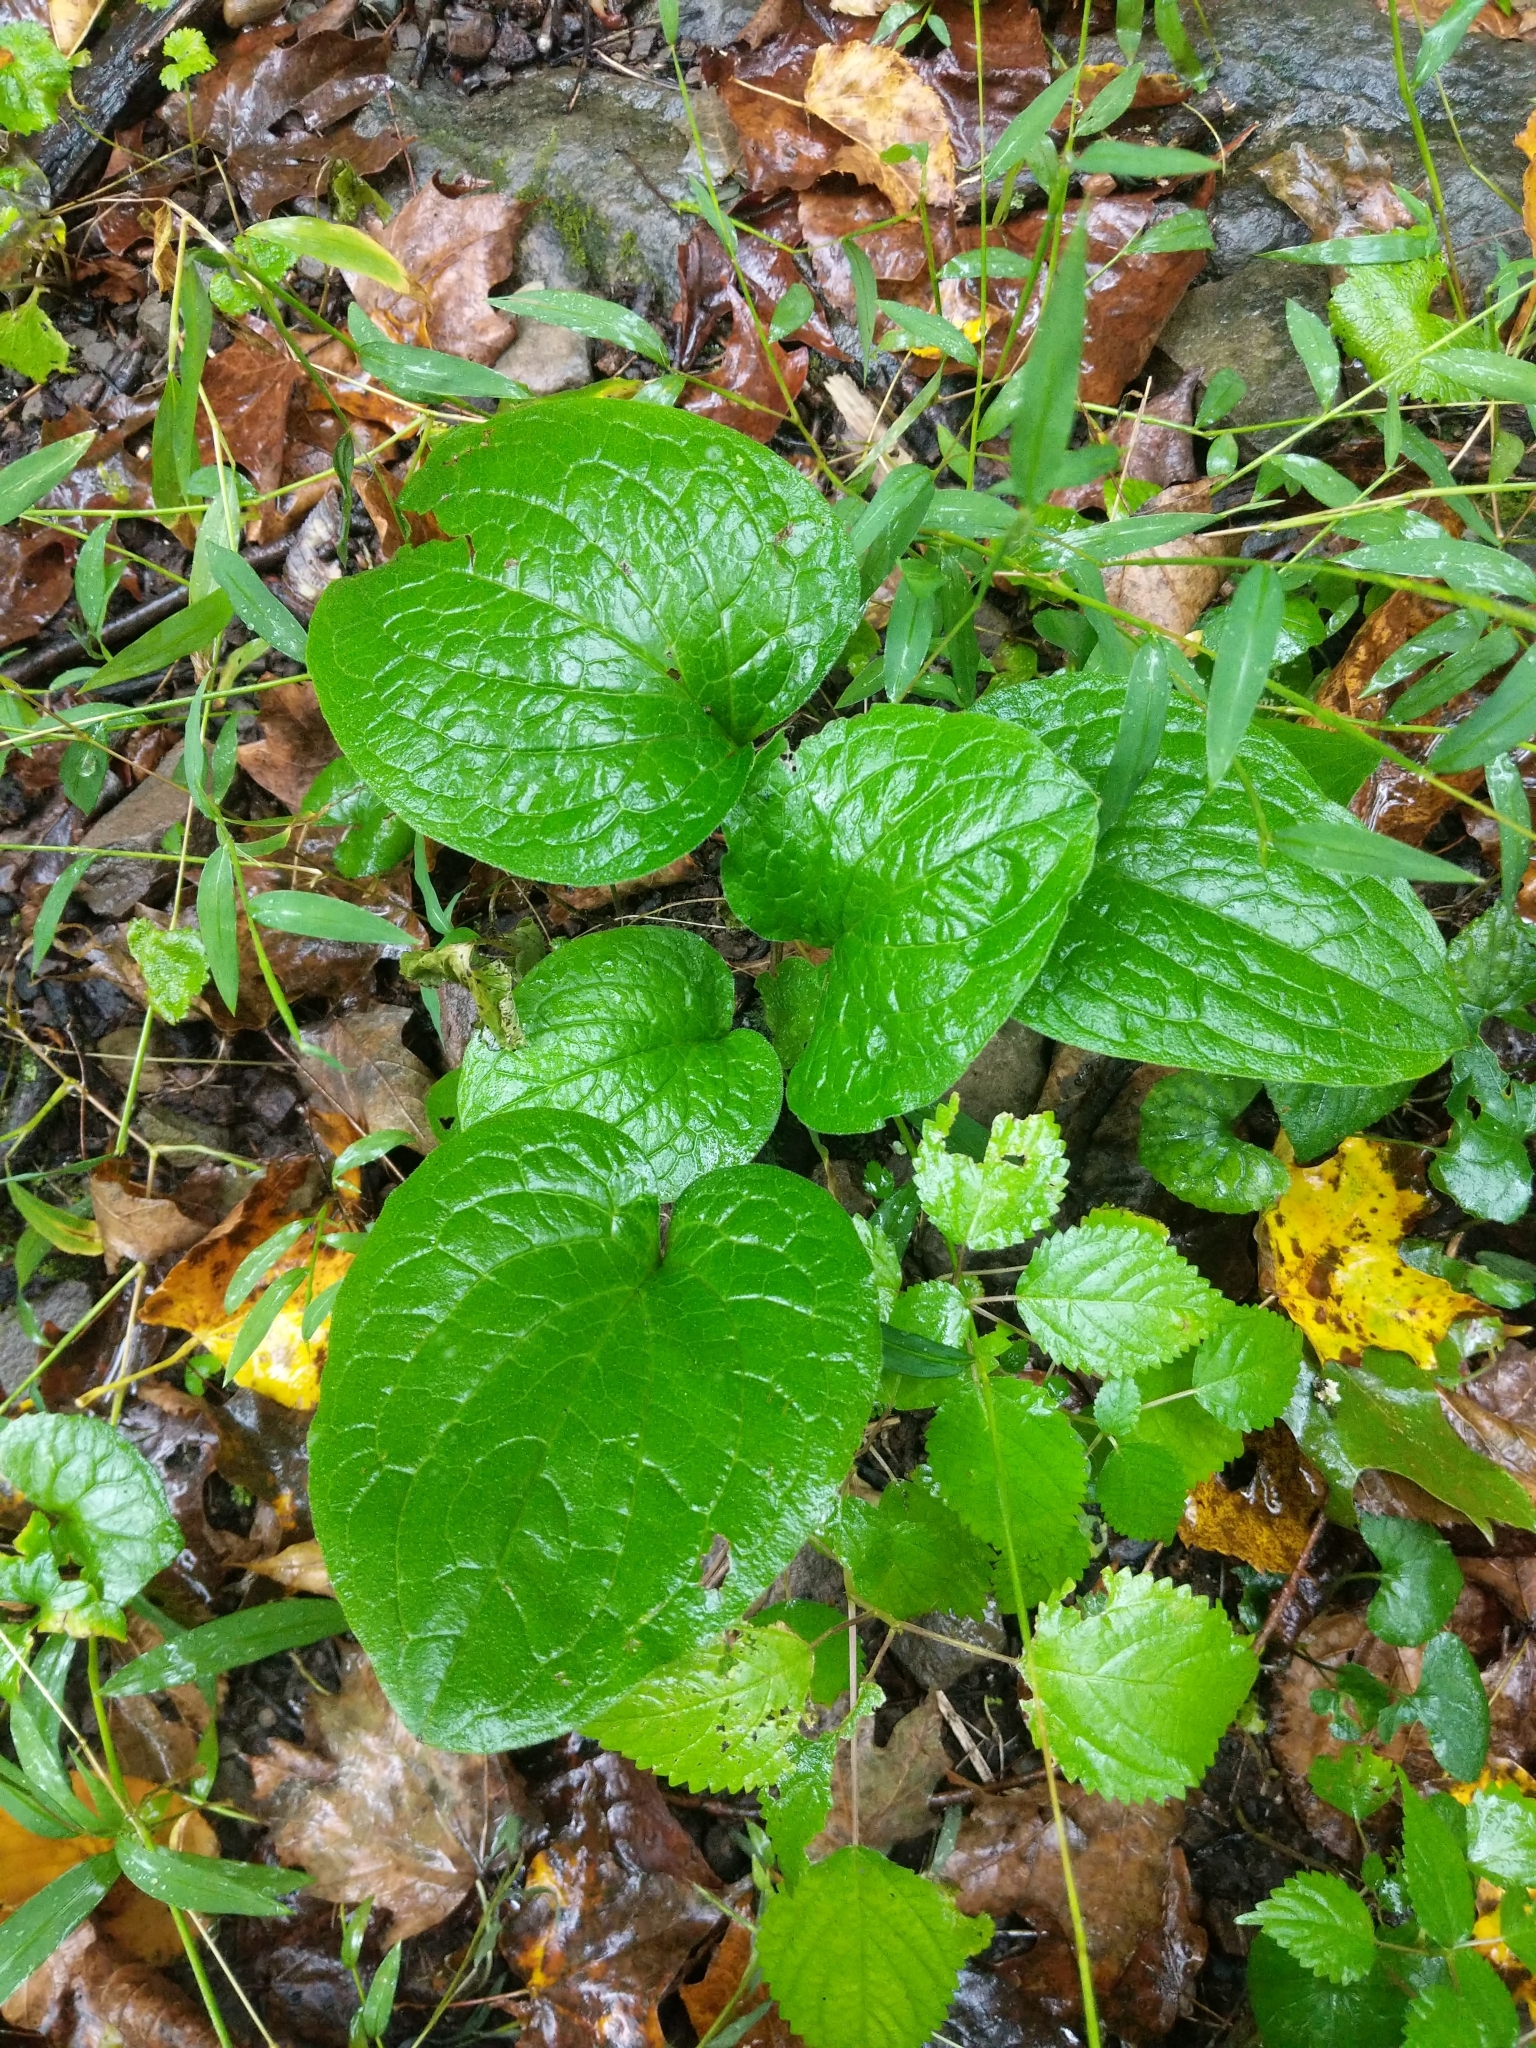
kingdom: Plantae
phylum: Tracheophyta
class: Magnoliopsida
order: Boraginales
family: Boraginaceae
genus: Hackelia
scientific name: Hackelia virginiana
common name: Beggar's-lice
